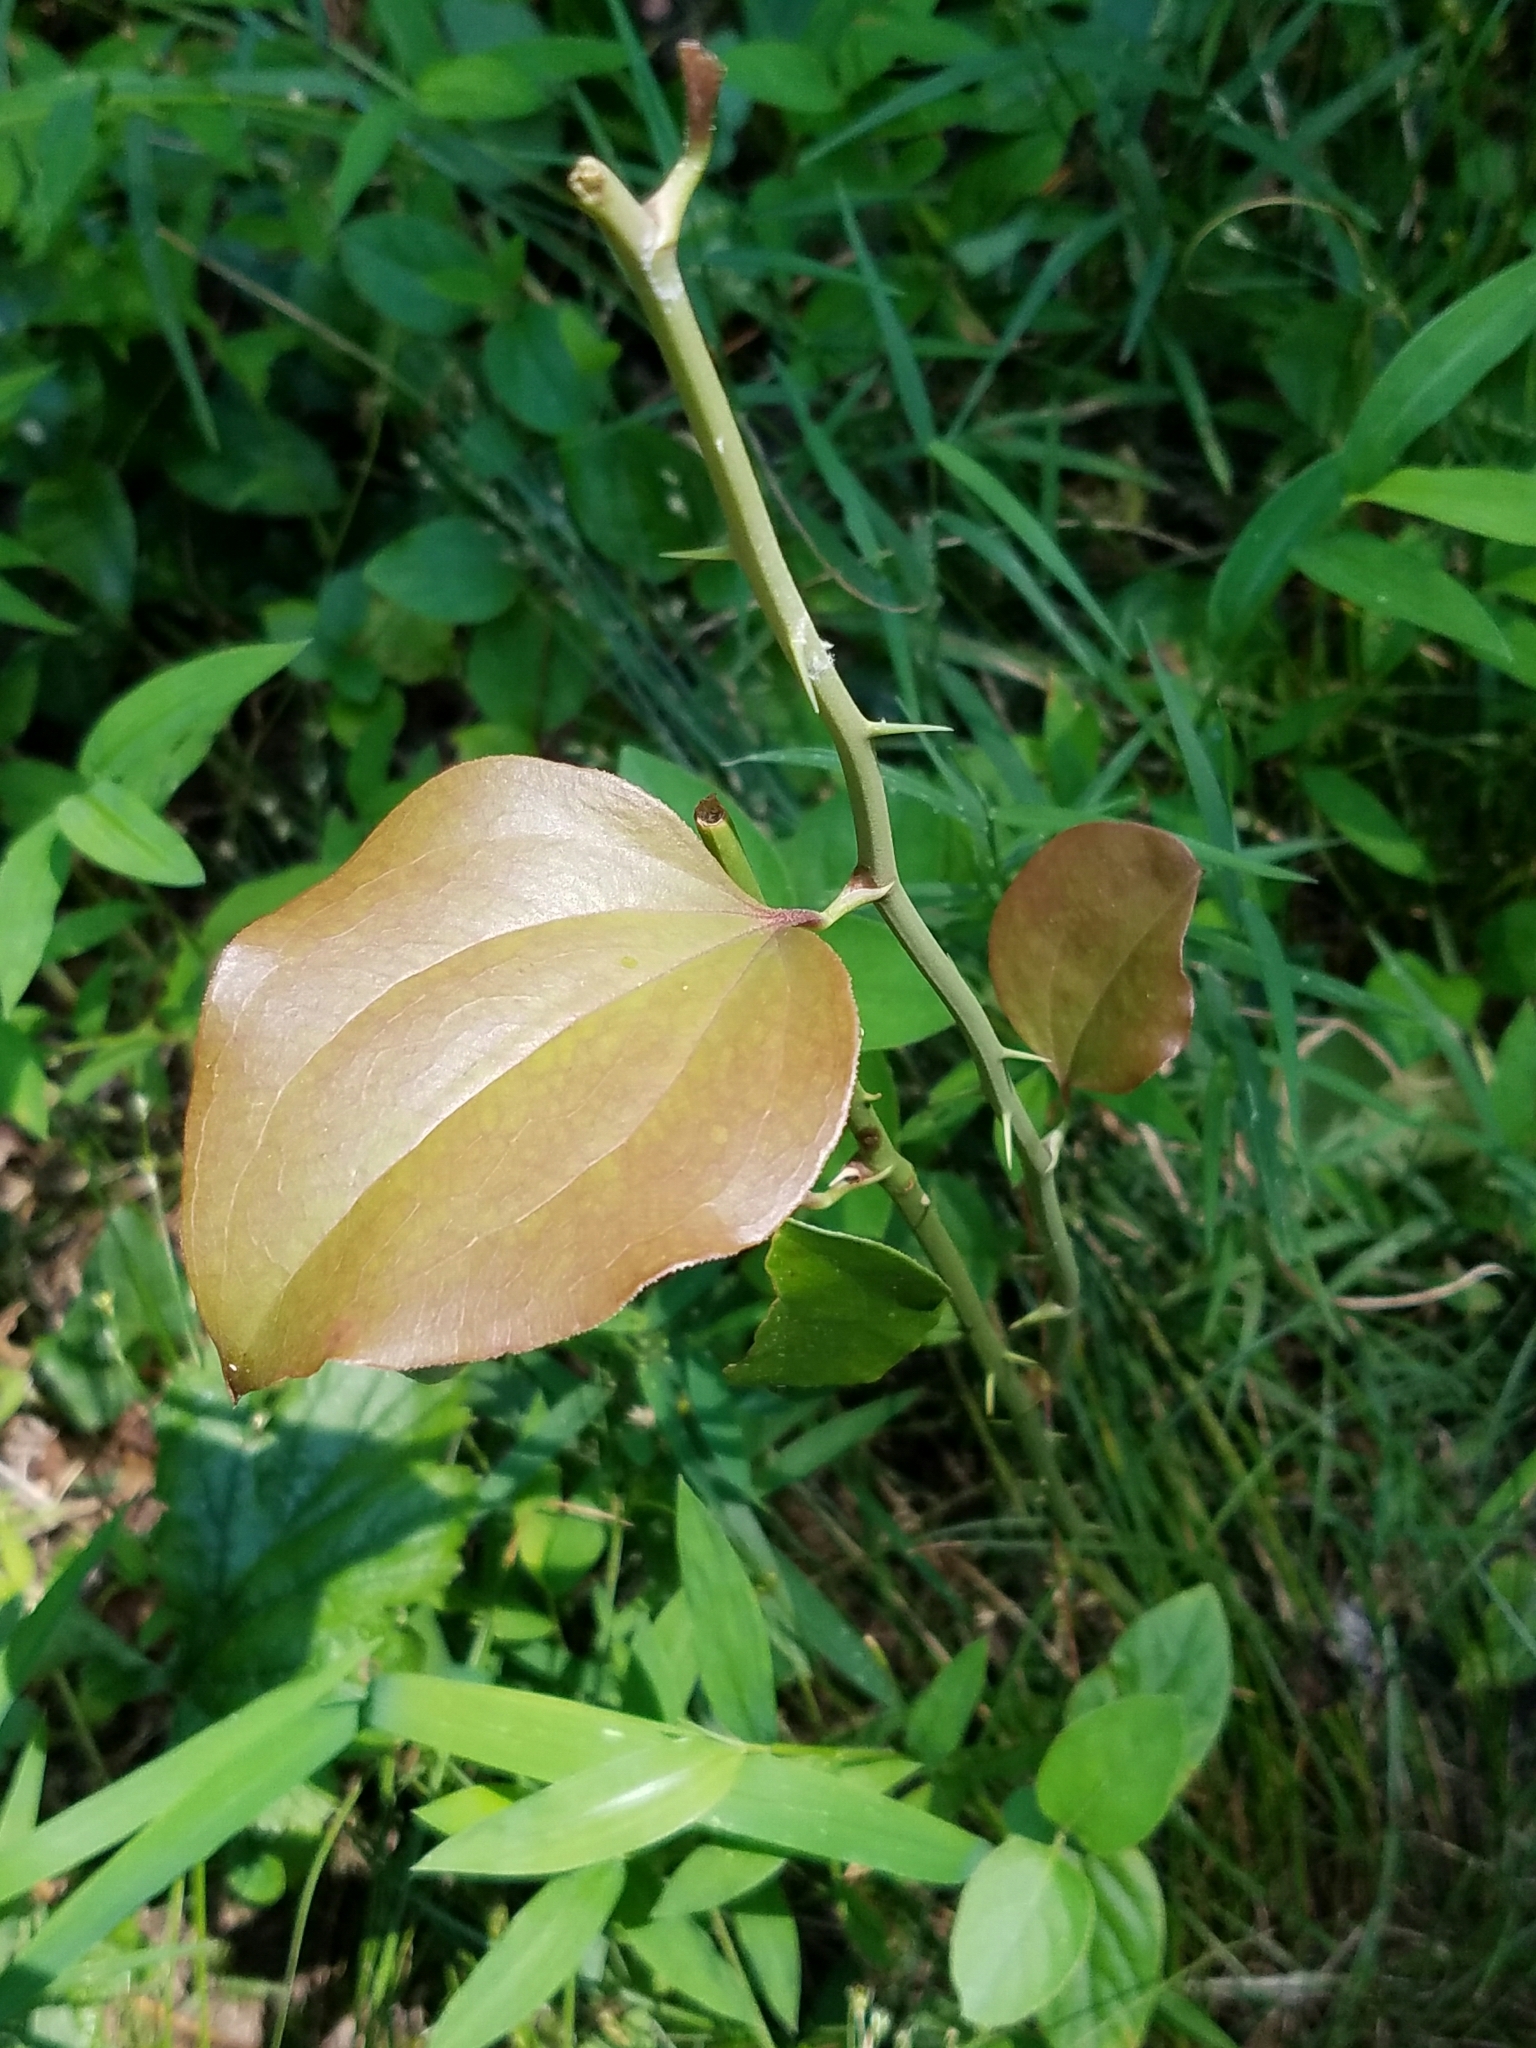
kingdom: Plantae
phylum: Tracheophyta
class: Liliopsida
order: Liliales
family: Smilacaceae
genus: Smilax
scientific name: Smilax rotundifolia
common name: Bullbriar
